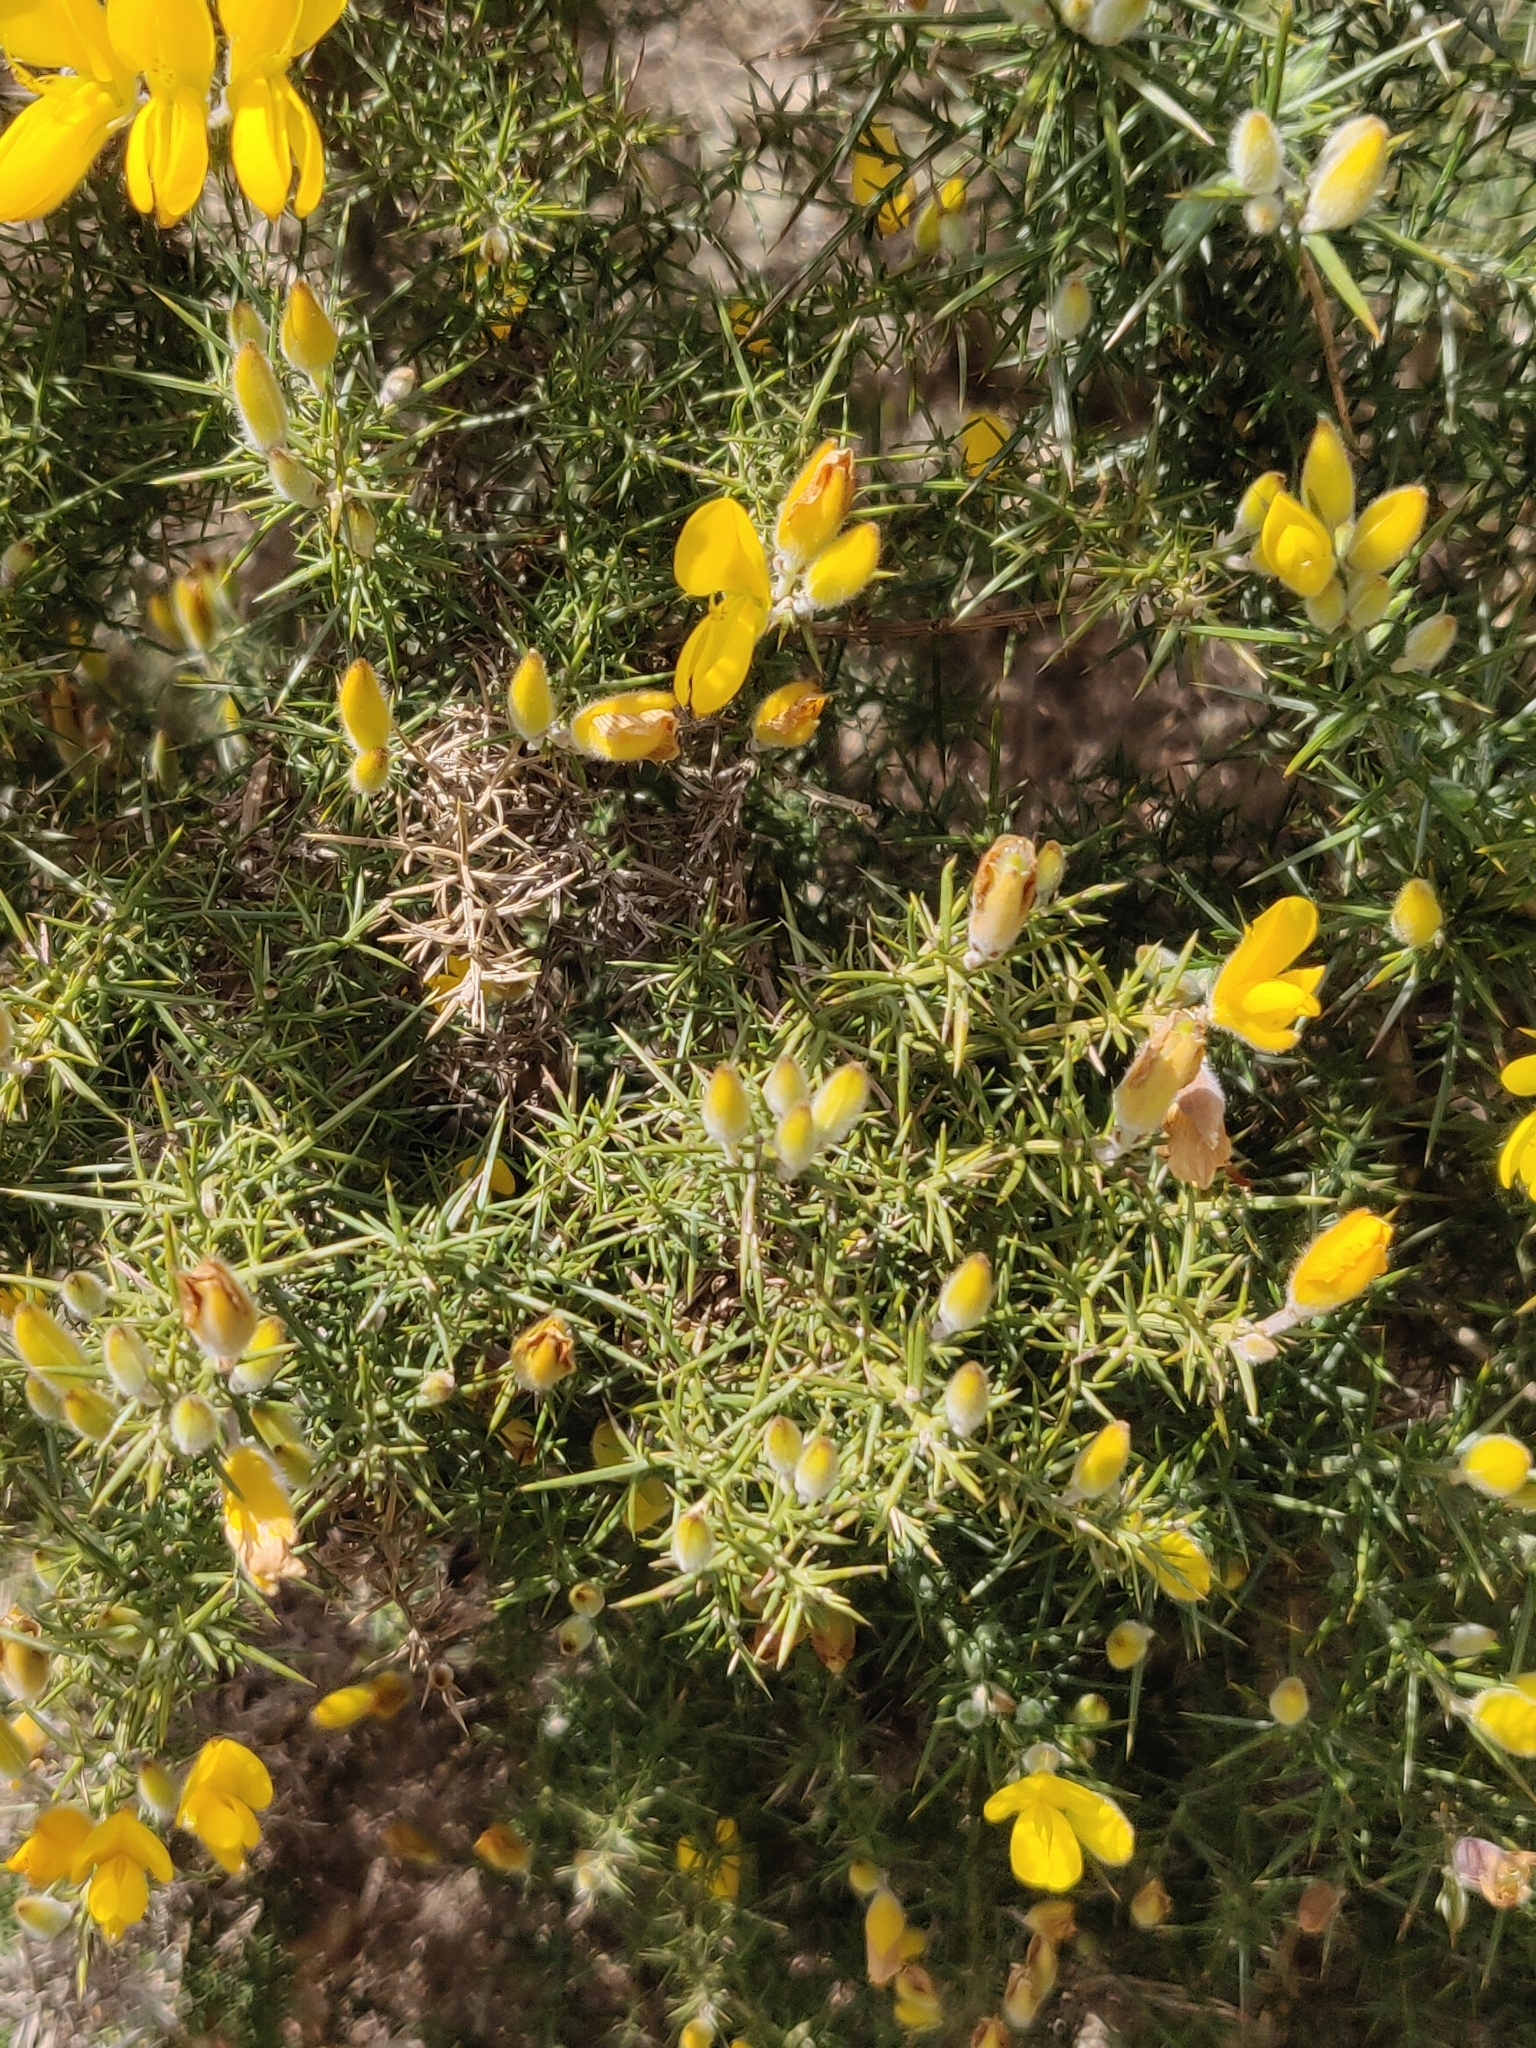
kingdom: Plantae
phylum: Tracheophyta
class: Magnoliopsida
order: Fabales
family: Fabaceae
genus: Ulex
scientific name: Ulex europaeus
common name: Common gorse
